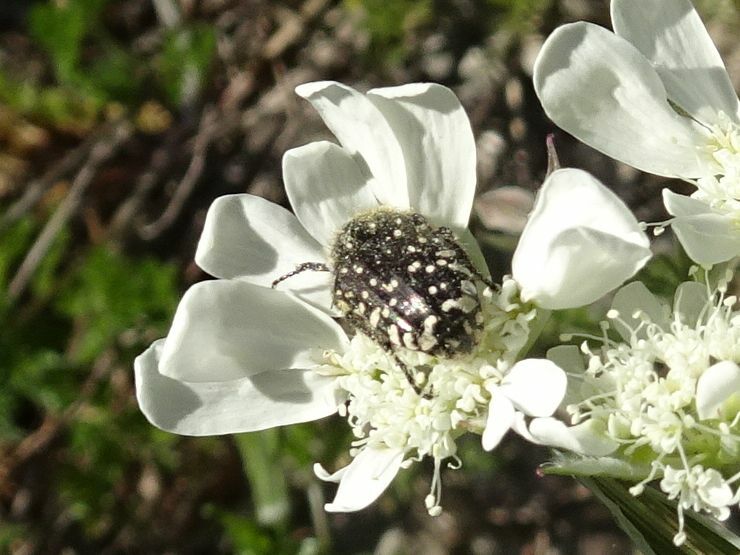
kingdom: Animalia
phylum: Arthropoda
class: Insecta
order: Coleoptera
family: Scarabaeidae
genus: Oxythyrea
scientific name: Oxythyrea funesta
